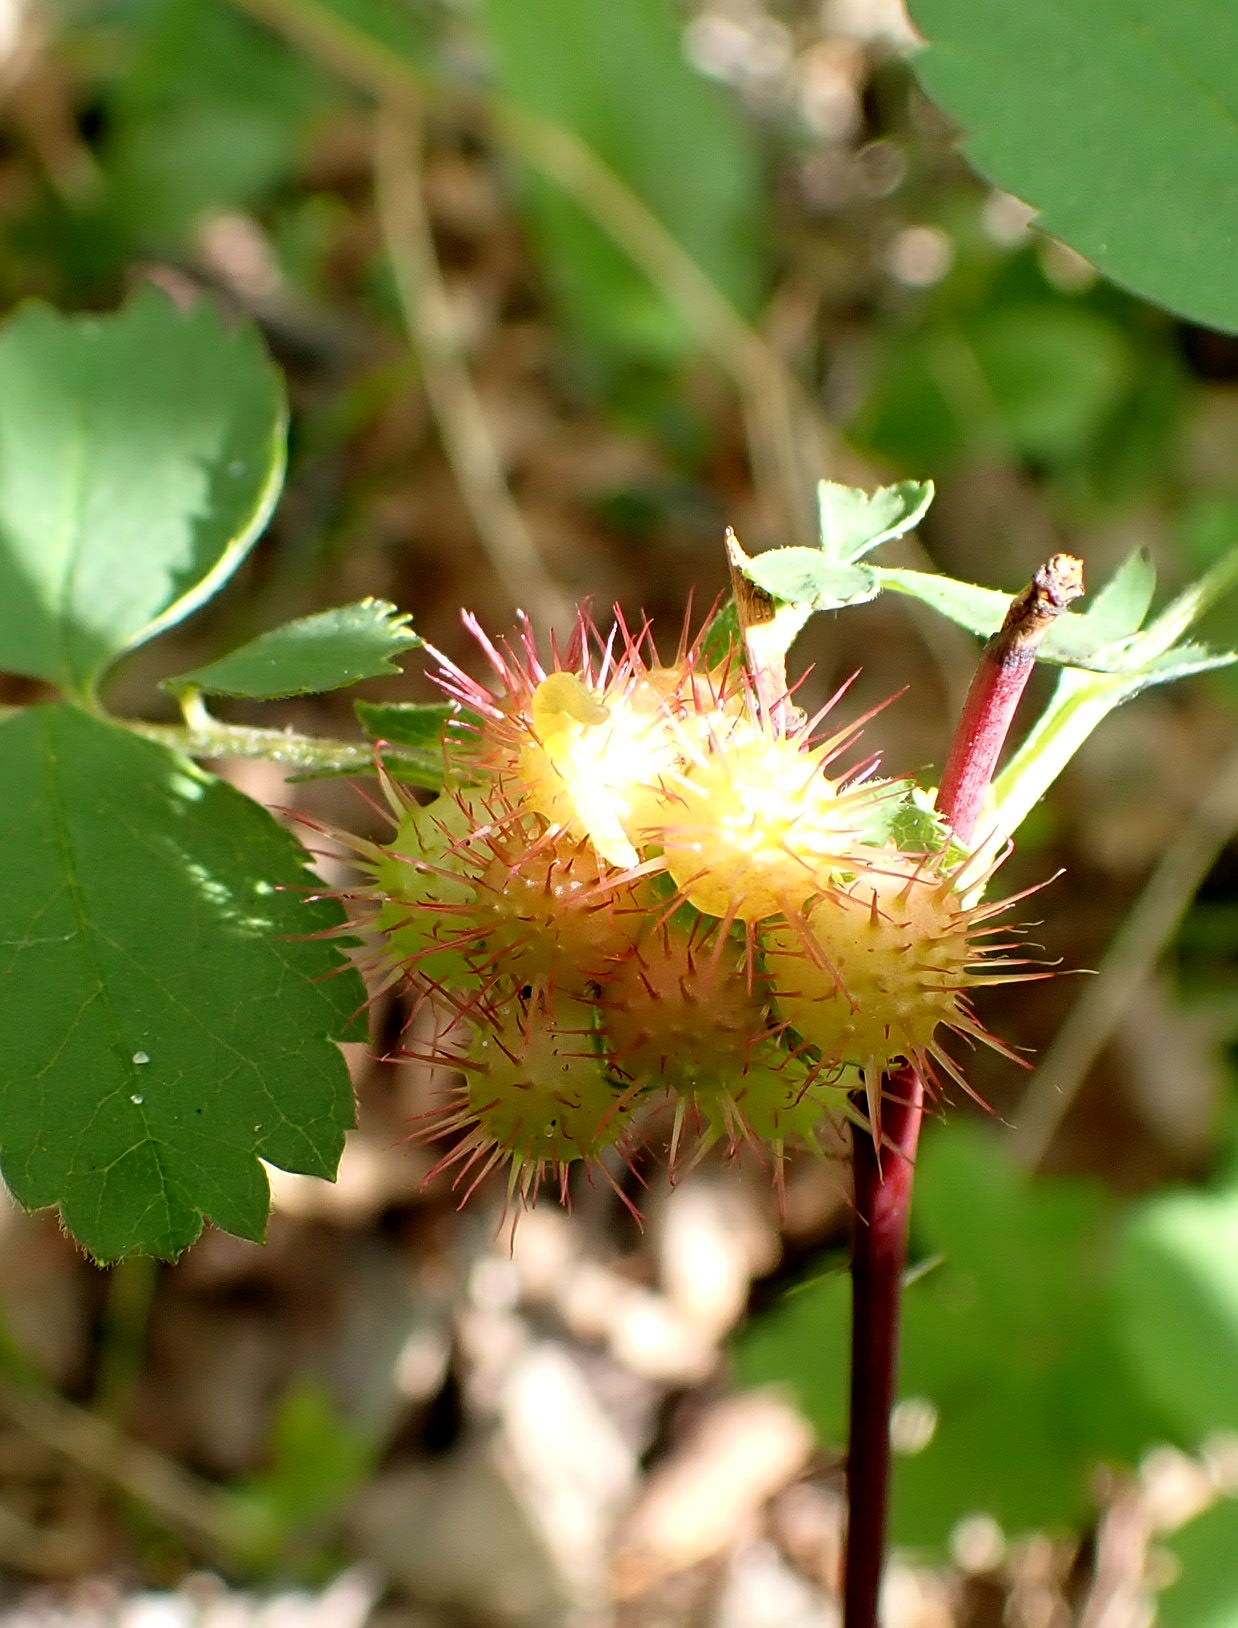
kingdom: Animalia
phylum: Arthropoda
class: Insecta
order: Hymenoptera
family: Cynipidae
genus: Diplolepis
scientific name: Diplolepis polita
